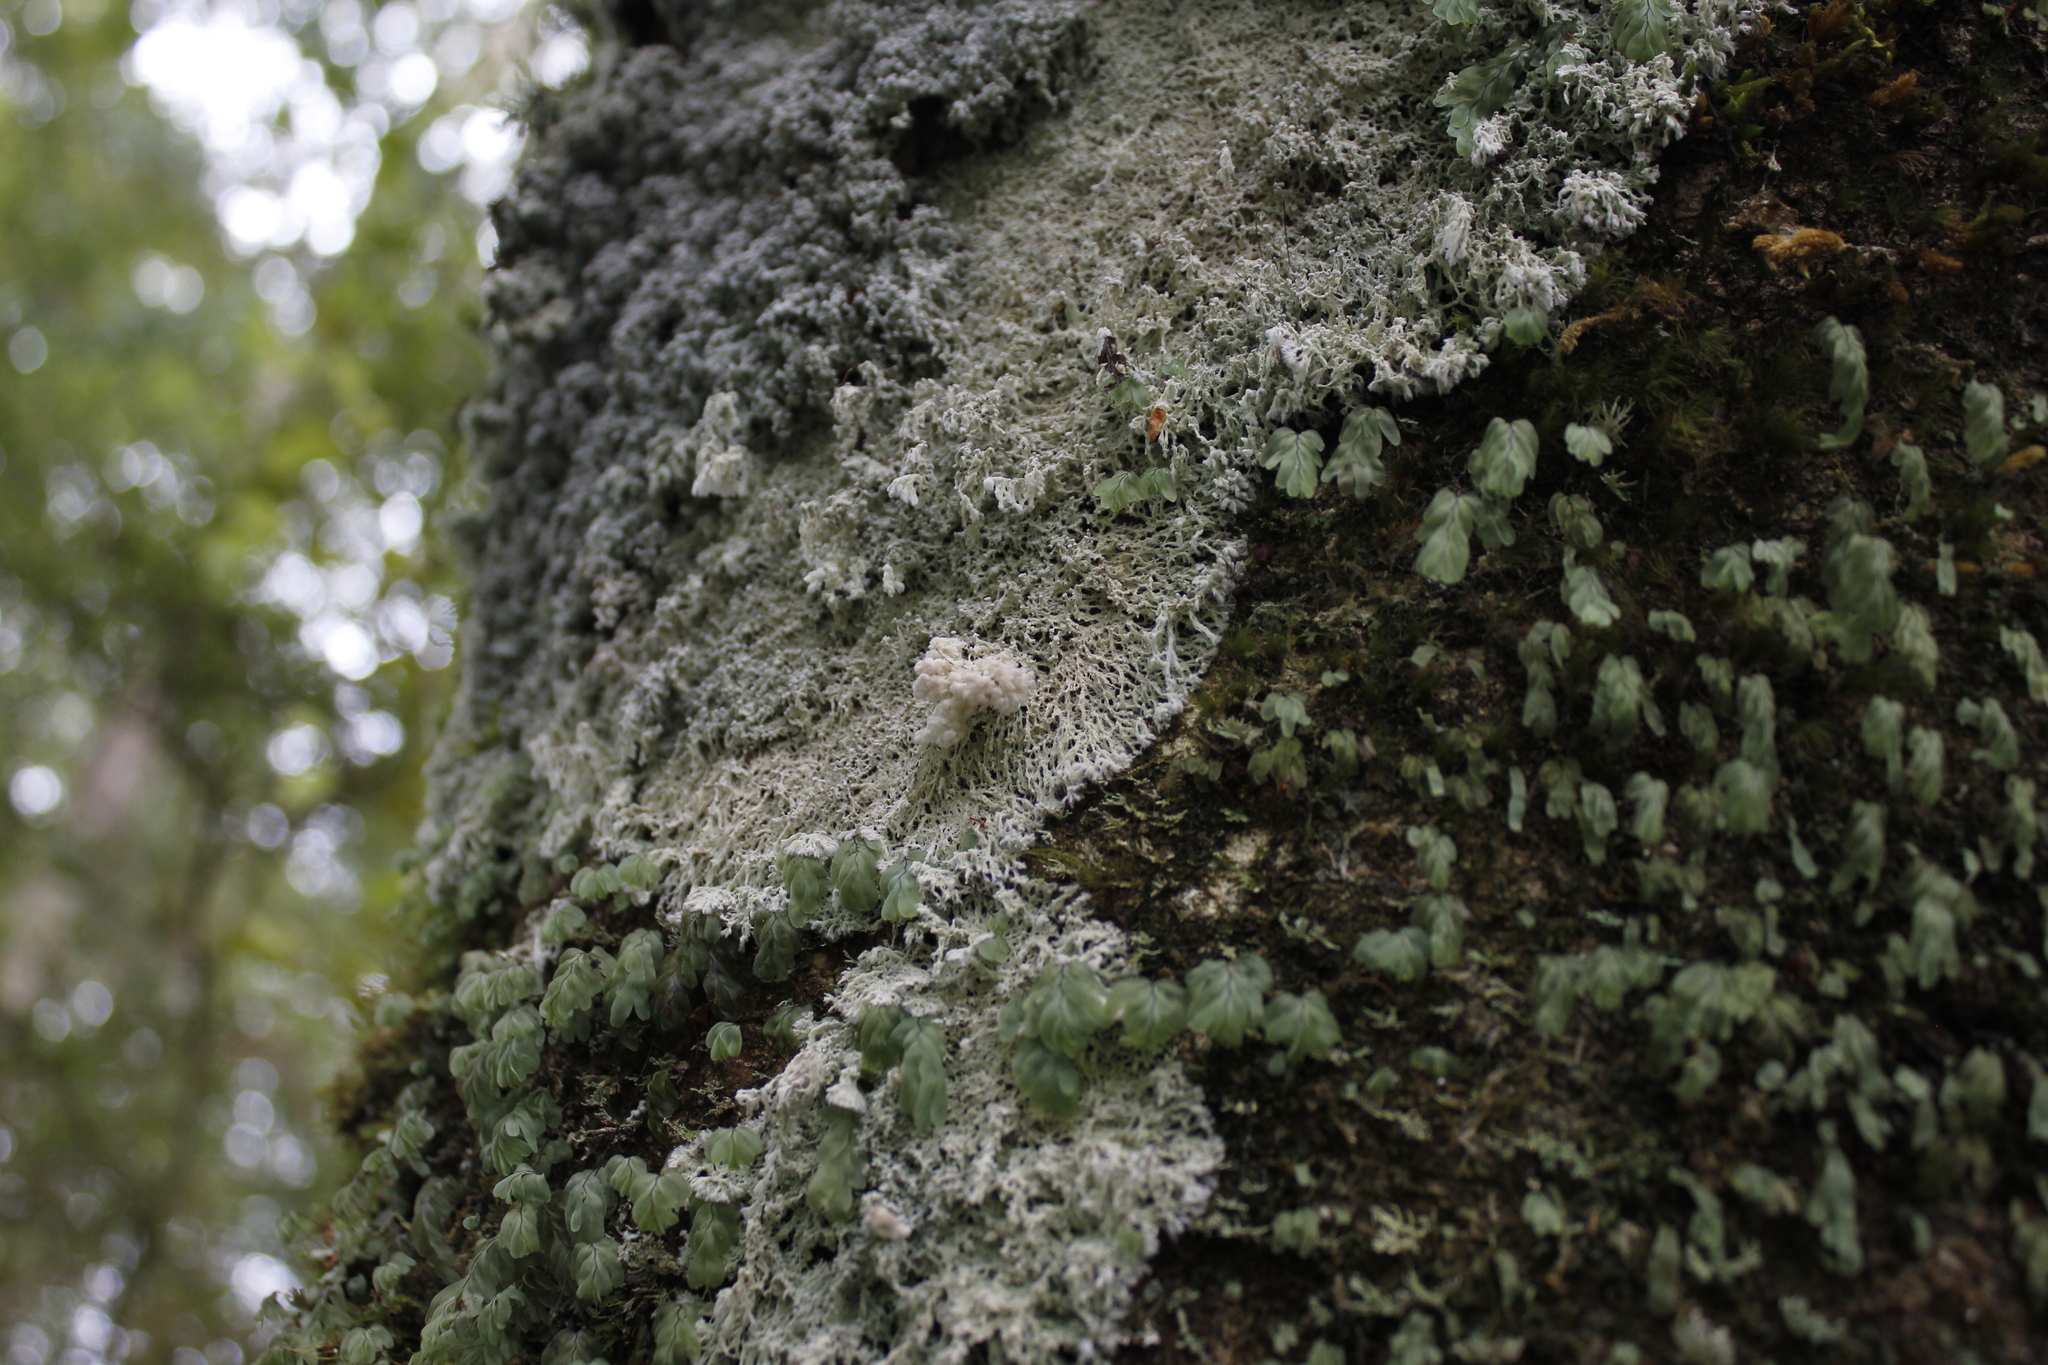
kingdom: Fungi
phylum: Ascomycota
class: Arthoniomycetes
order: Arthoniales
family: Roccellaceae
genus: Lecanactis
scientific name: Lecanactis mollis
